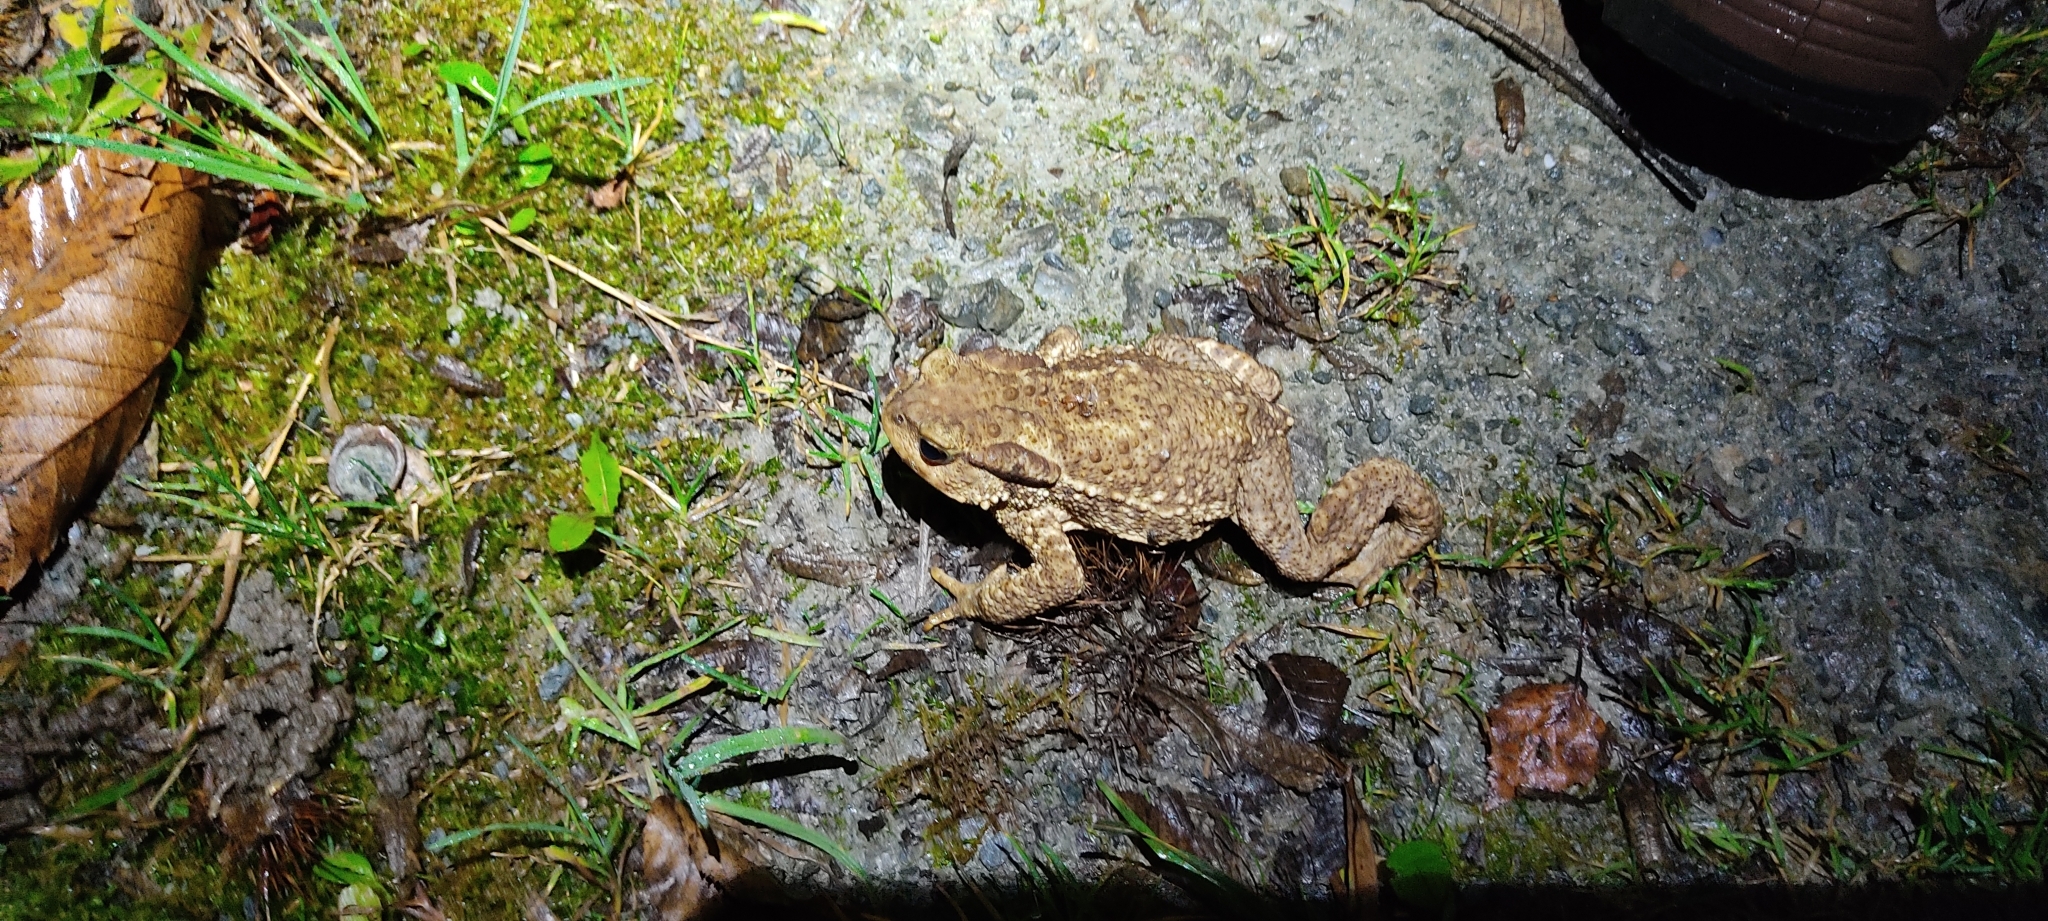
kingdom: Animalia
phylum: Chordata
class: Amphibia
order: Anura
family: Bufonidae
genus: Bufo
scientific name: Bufo spinosus
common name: Western common toad
